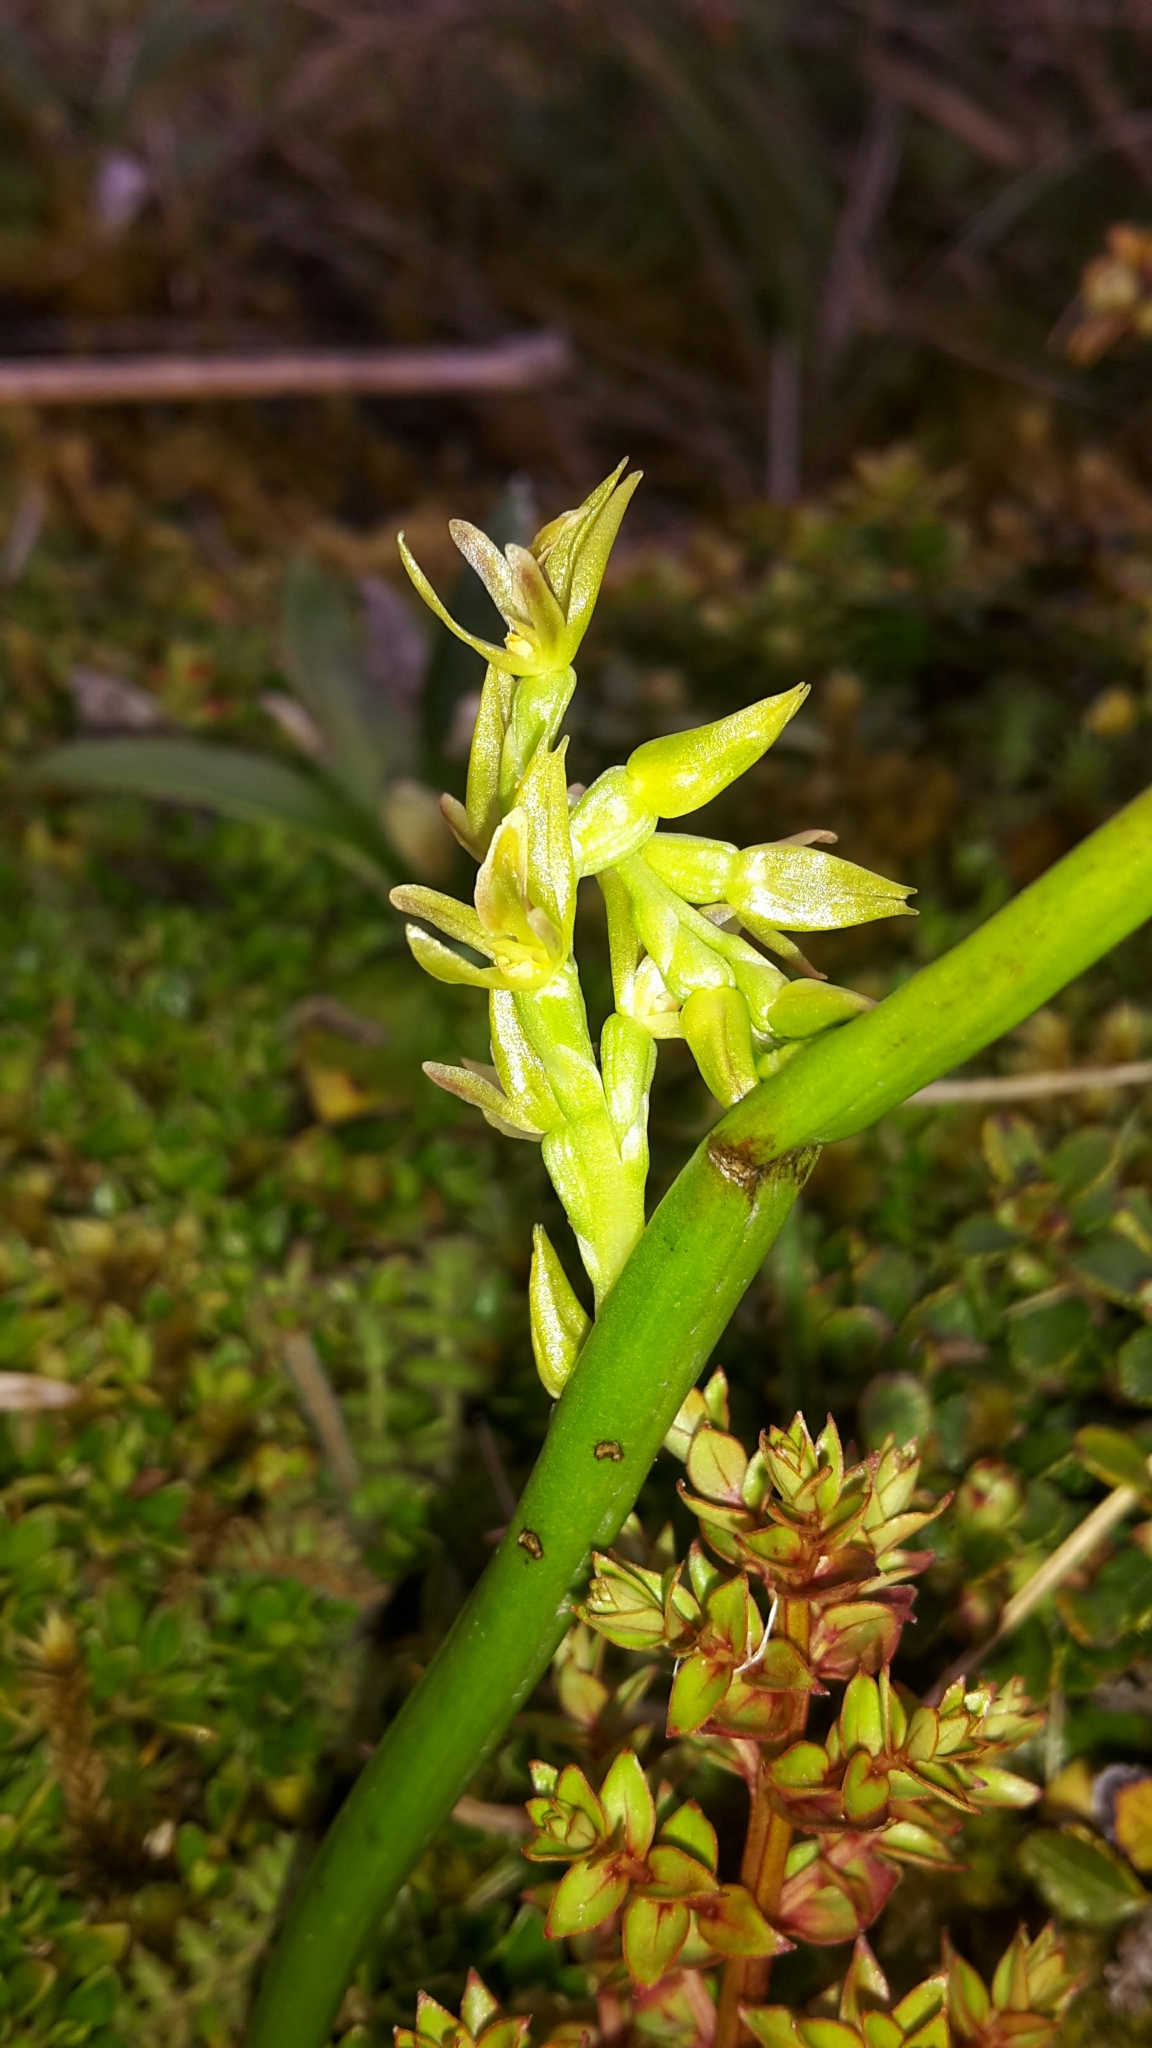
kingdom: Plantae
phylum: Tracheophyta
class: Liliopsida
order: Asparagales
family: Orchidaceae
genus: Prasophyllum
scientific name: Prasophyllum colensoi
